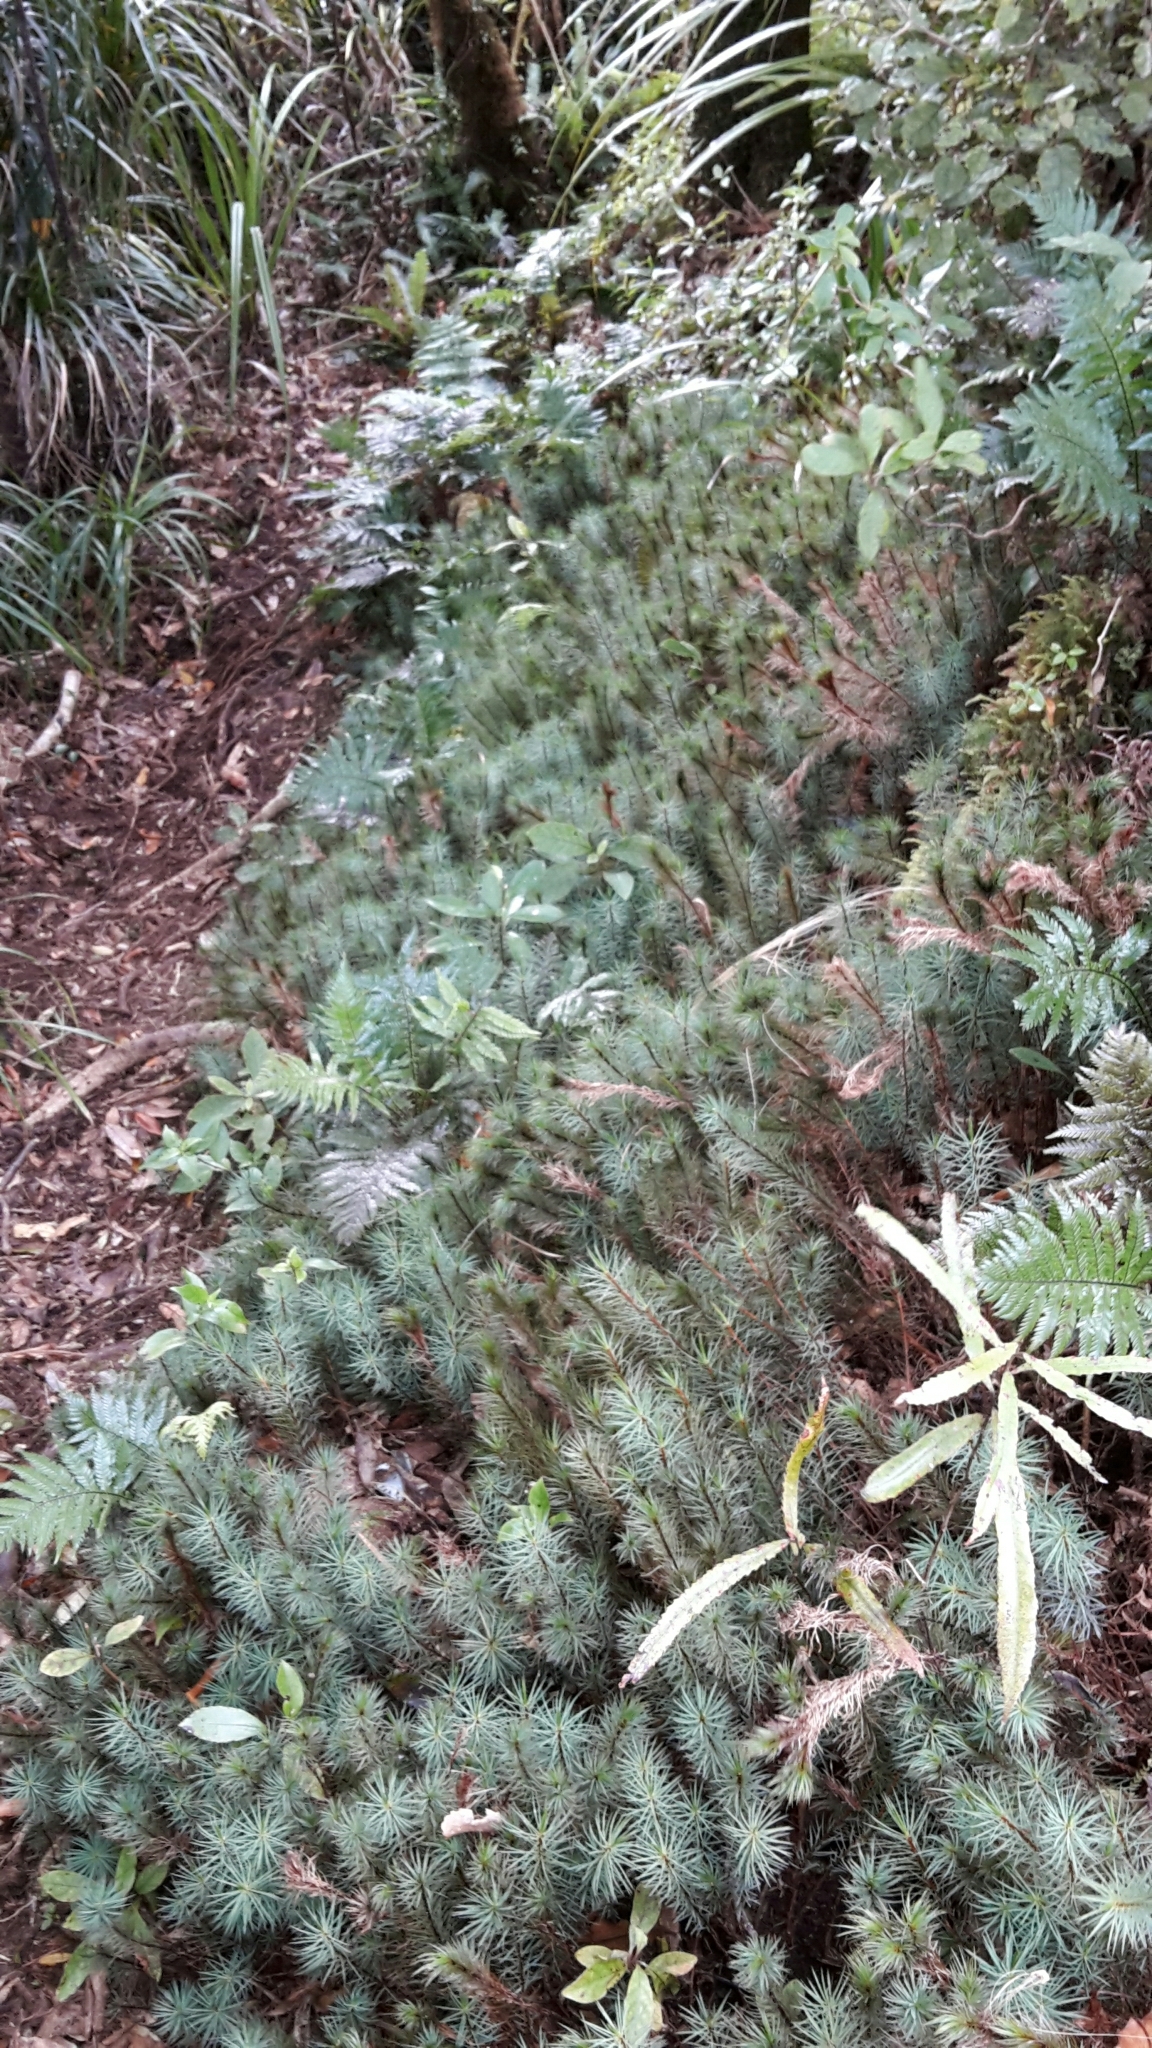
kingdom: Plantae
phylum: Bryophyta
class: Polytrichopsida
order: Polytrichales
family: Polytrichaceae
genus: Dawsonia
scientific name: Dawsonia superba
